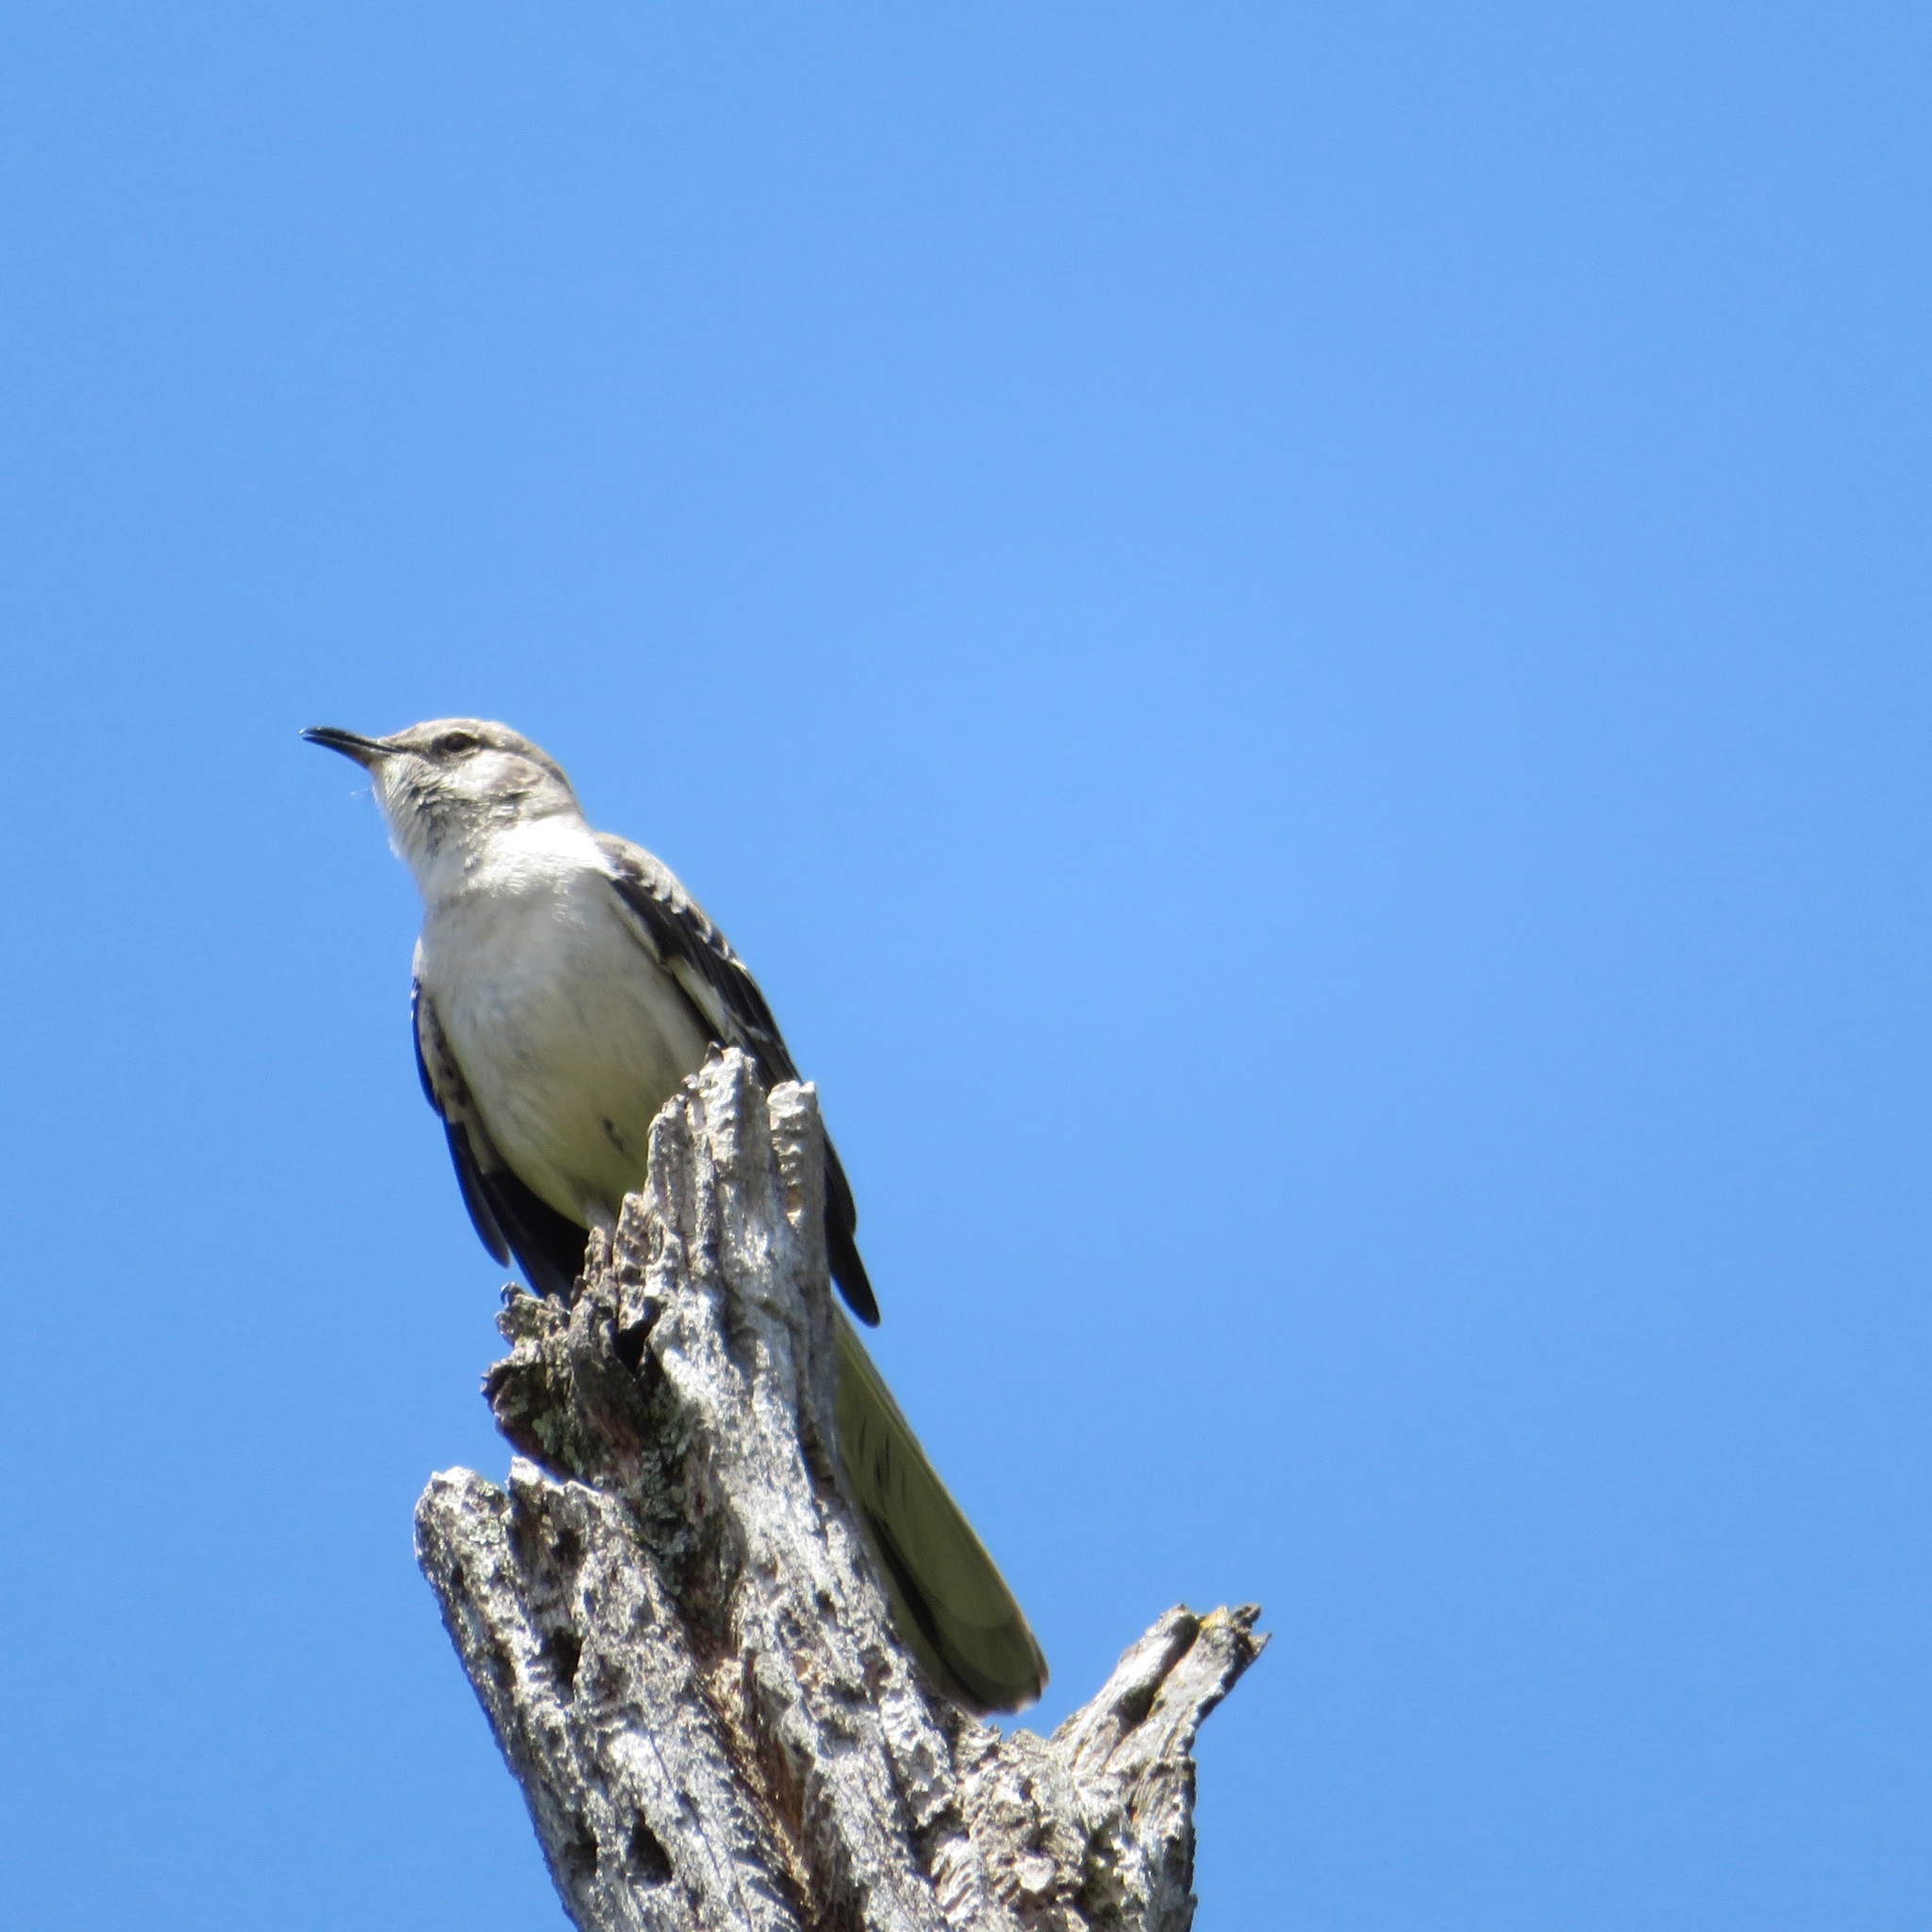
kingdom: Animalia
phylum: Chordata
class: Aves
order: Passeriformes
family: Mimidae
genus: Mimus
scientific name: Mimus polyglottos
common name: Northern mockingbird
